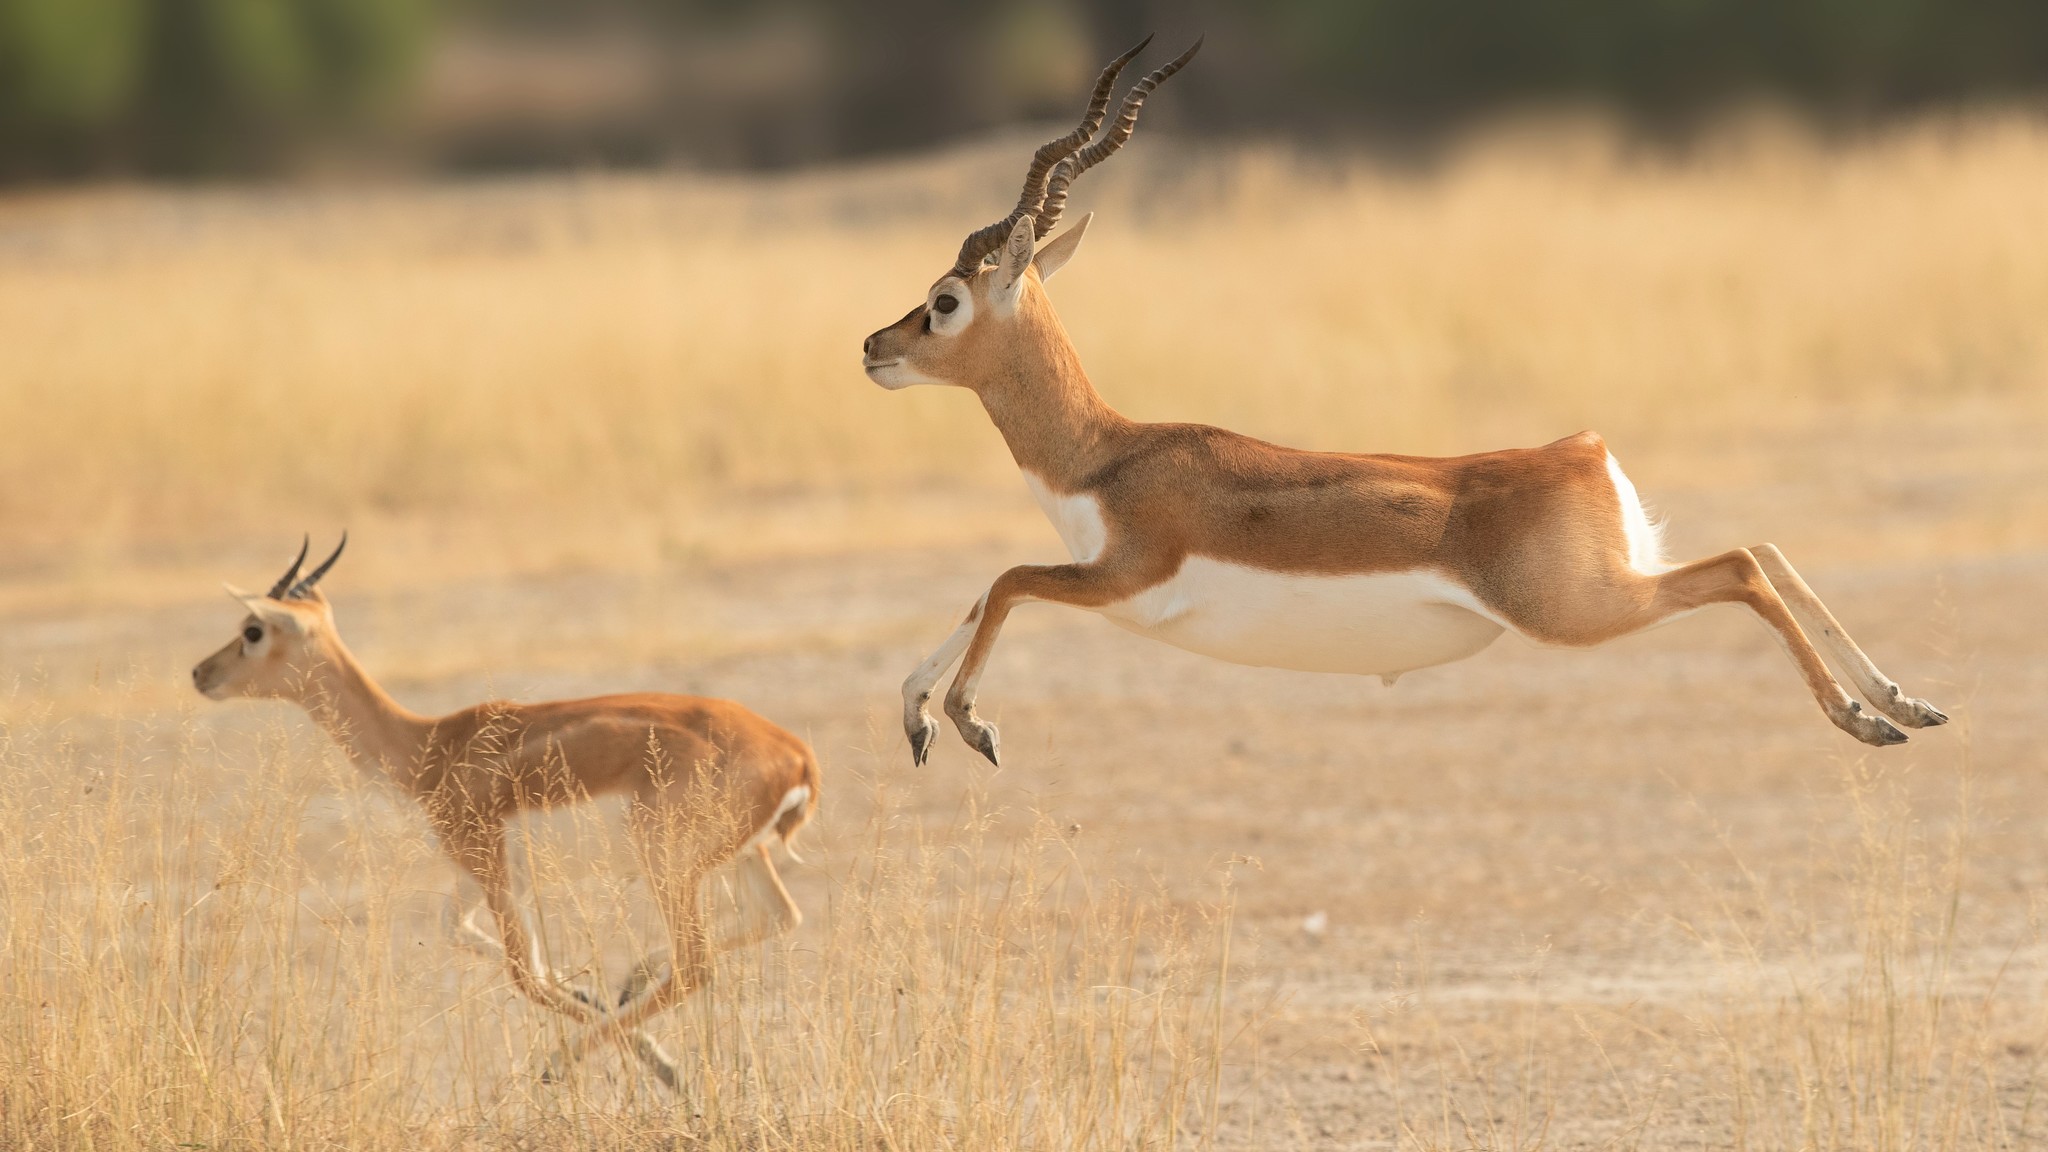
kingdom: Animalia
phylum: Chordata
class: Mammalia
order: Artiodactyla
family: Bovidae
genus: Antilope
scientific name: Antilope cervicapra
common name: Blackbuck
